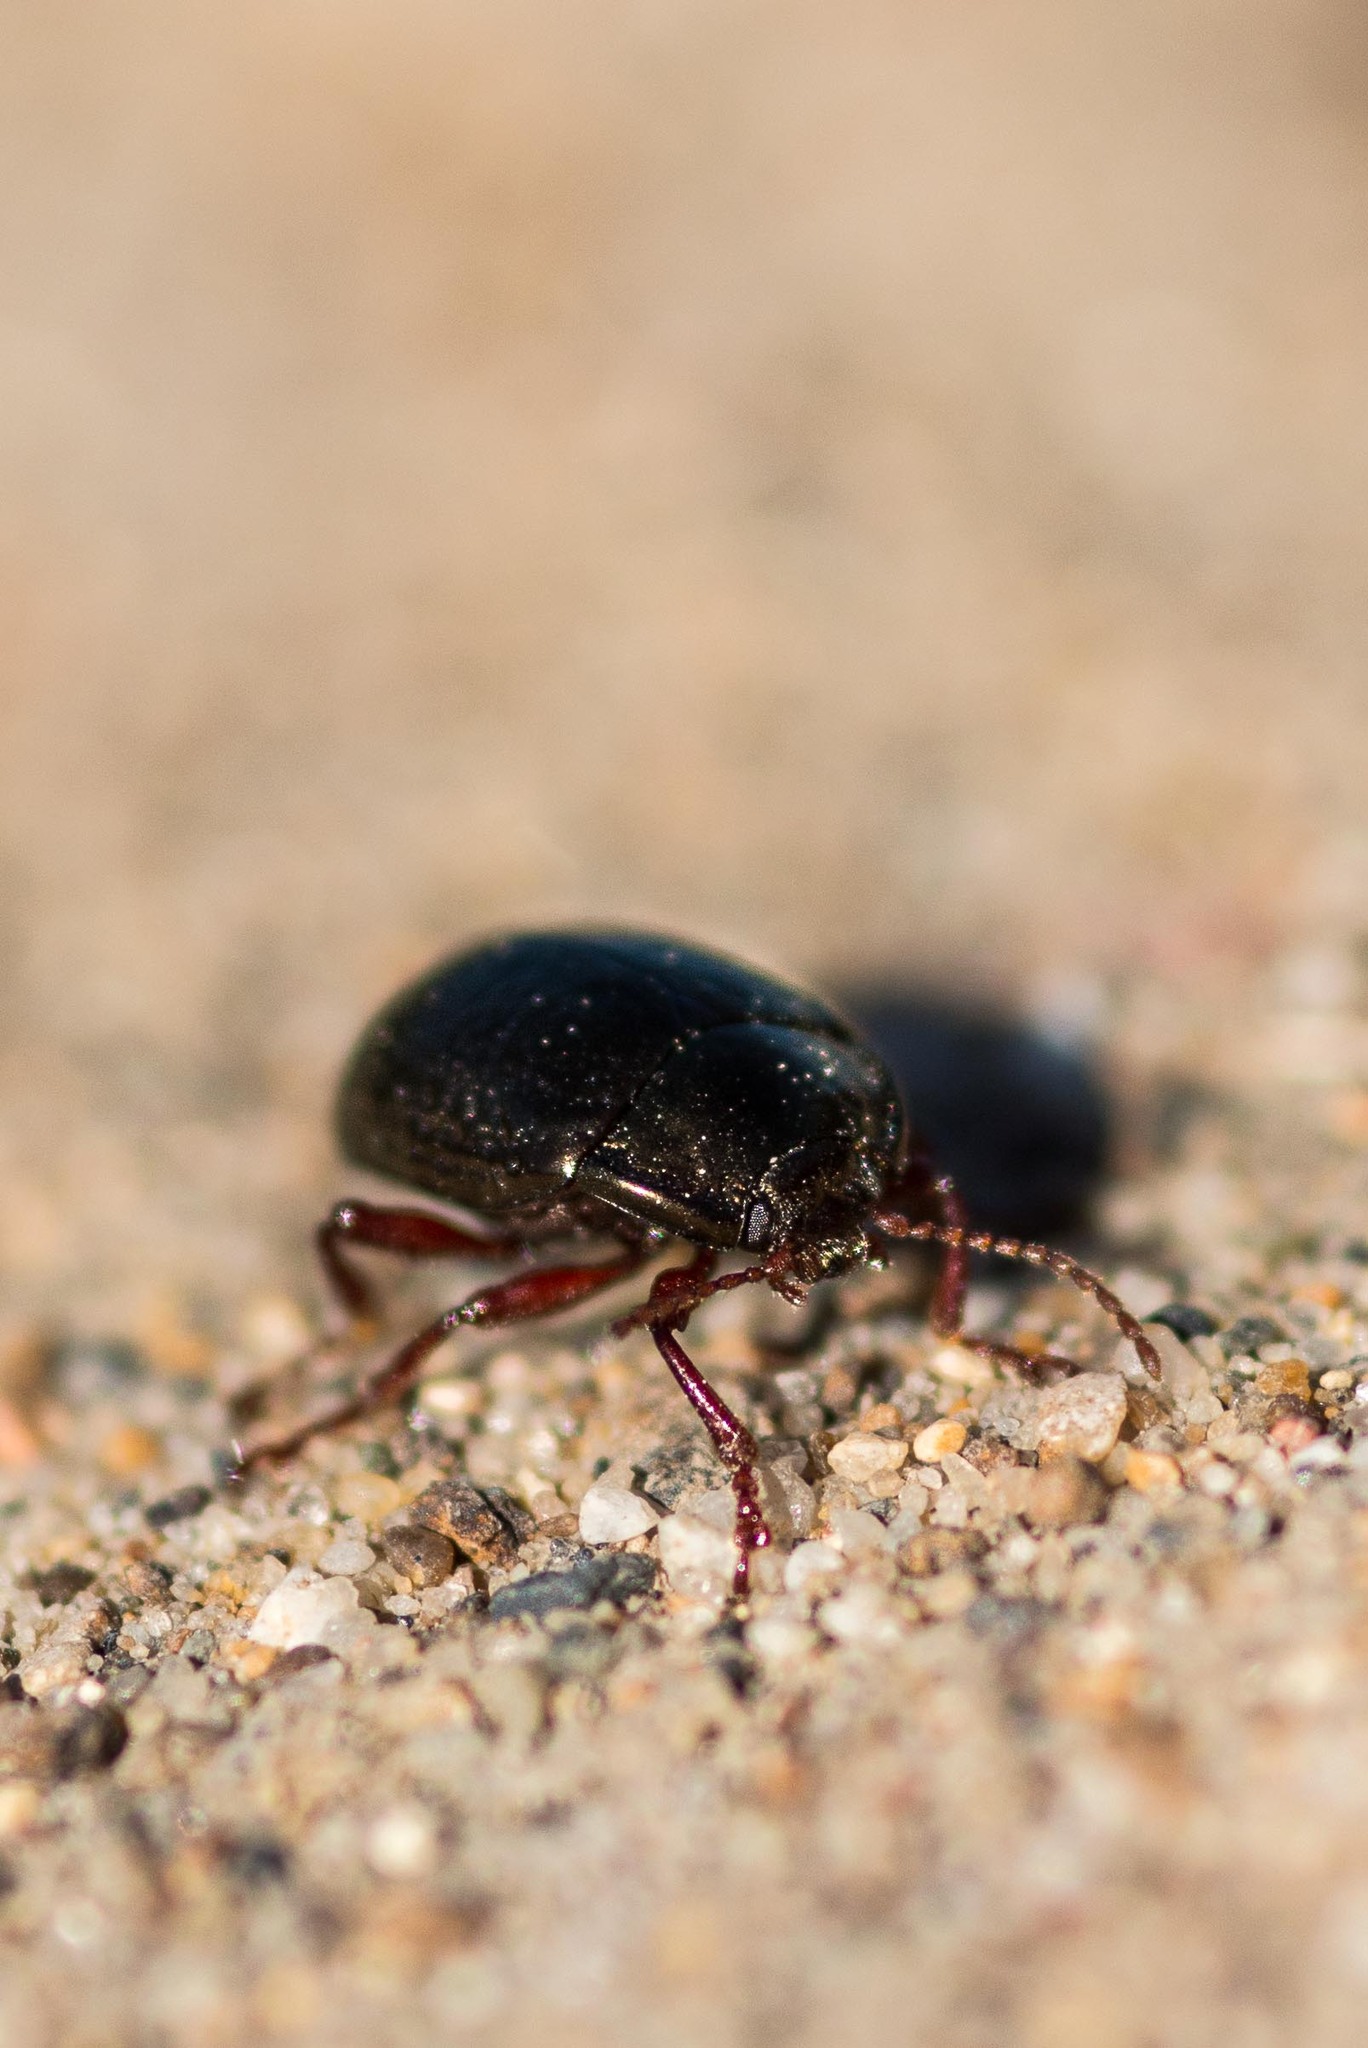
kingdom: Animalia
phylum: Arthropoda
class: Insecta
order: Coleoptera
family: Chrysomelidae
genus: Chrysolina
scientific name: Chrysolina bankii
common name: Leaf beetle
